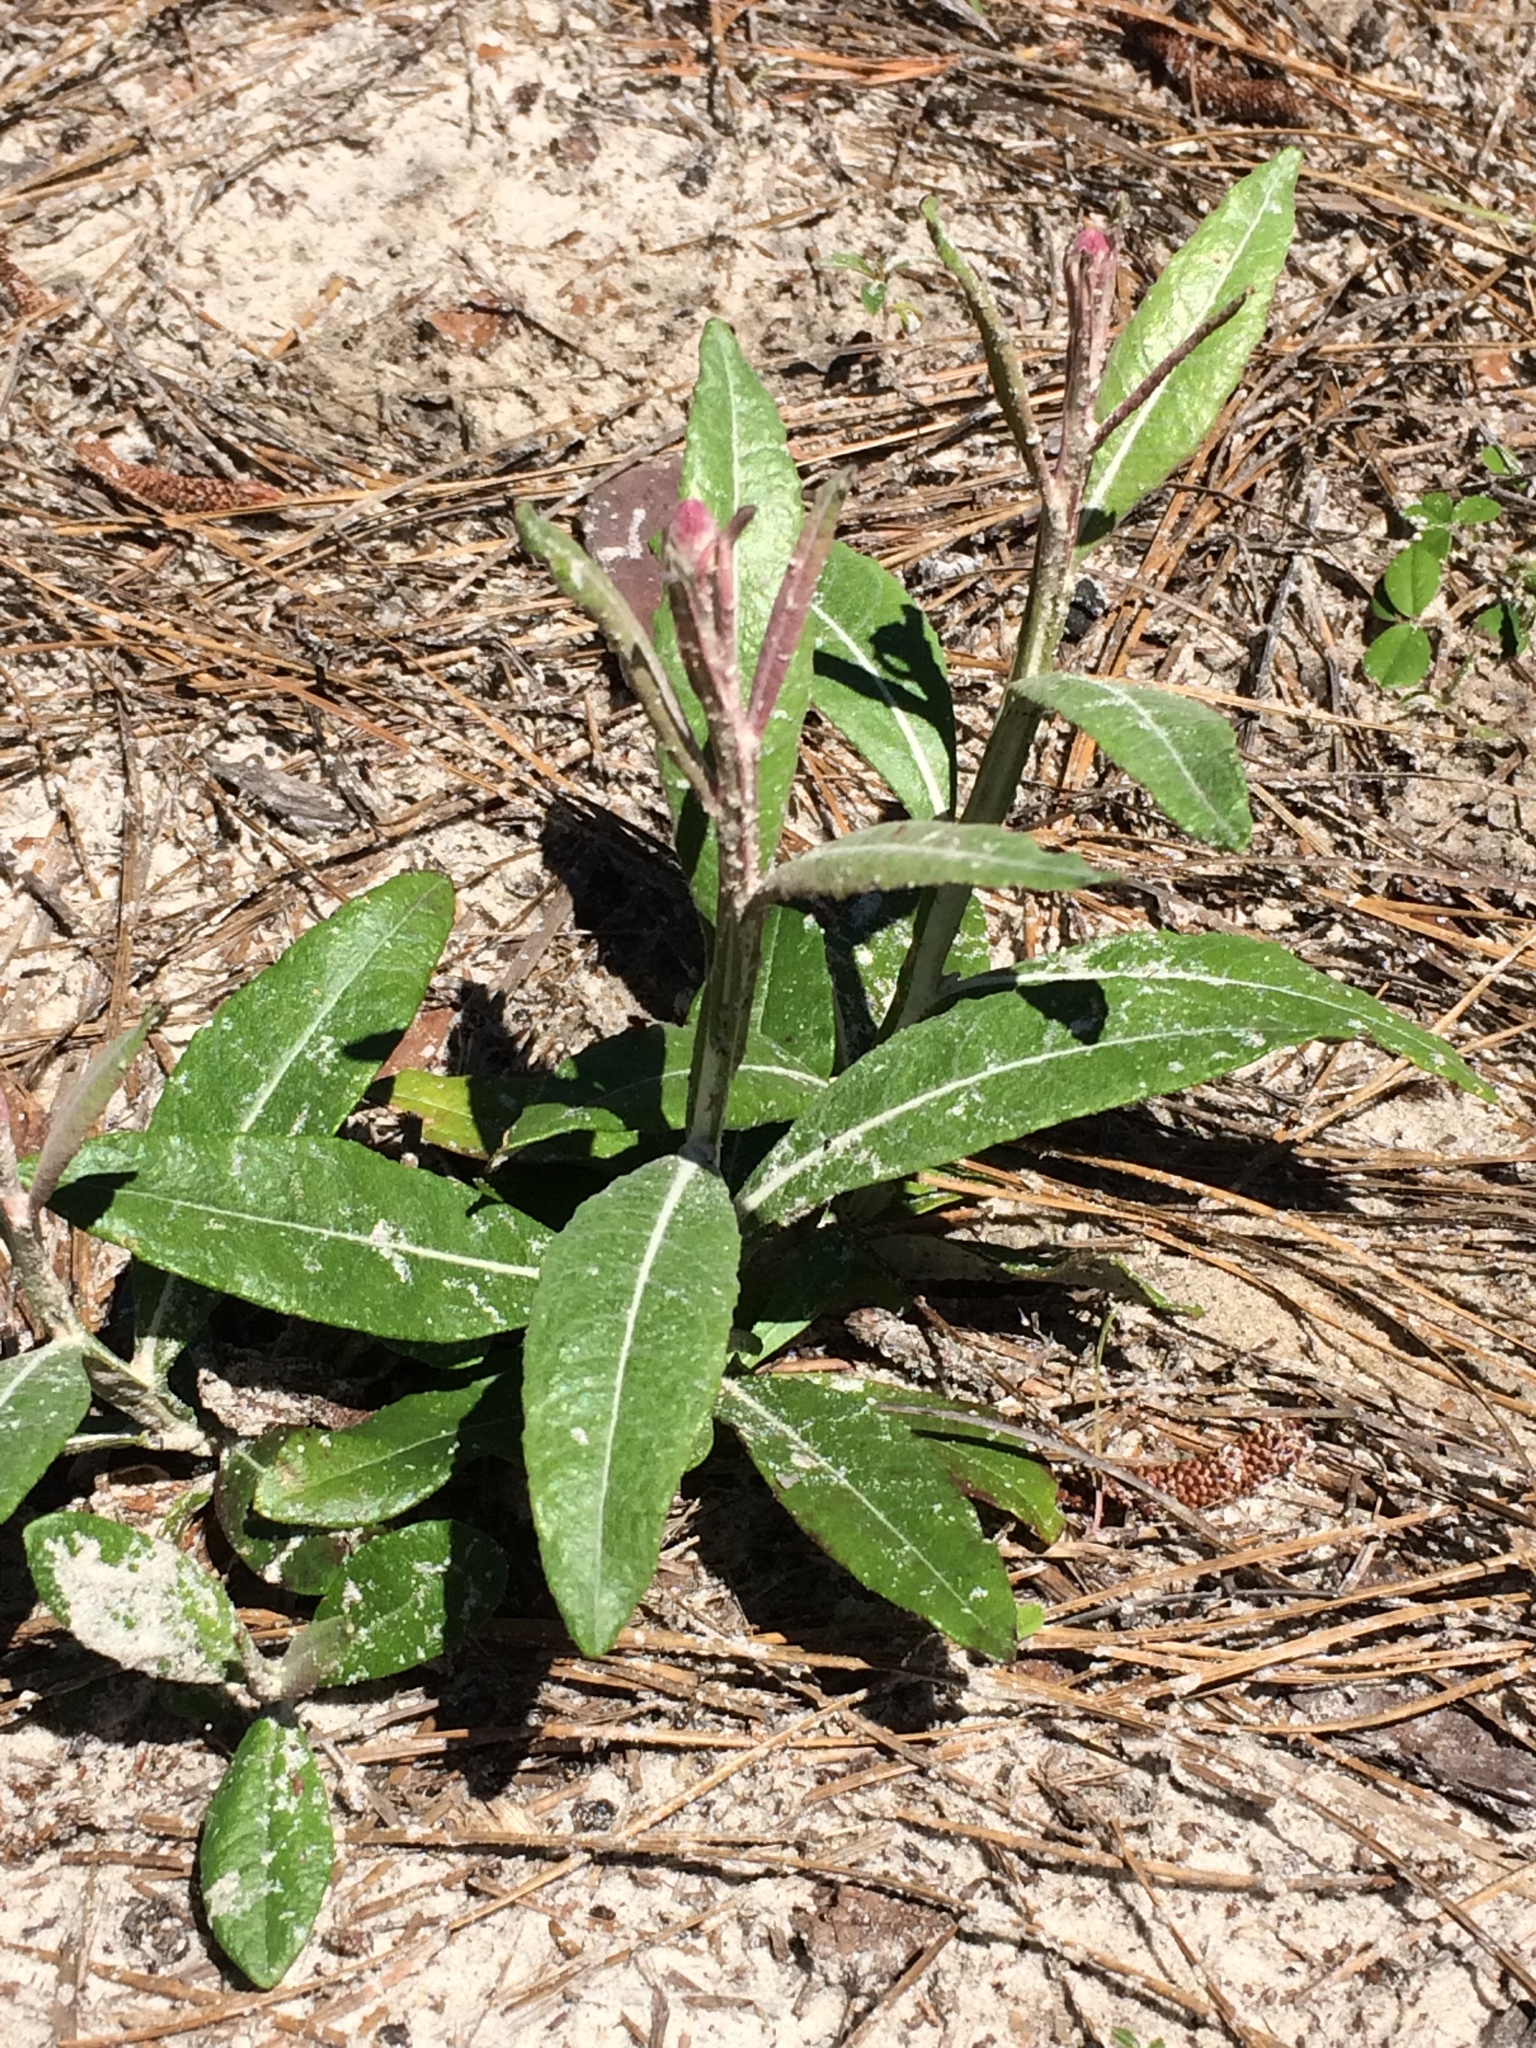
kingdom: Plantae
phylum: Tracheophyta
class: Magnoliopsida
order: Asterales
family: Asteraceae
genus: Pterocaulon
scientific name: Pterocaulon pycnostachyum
